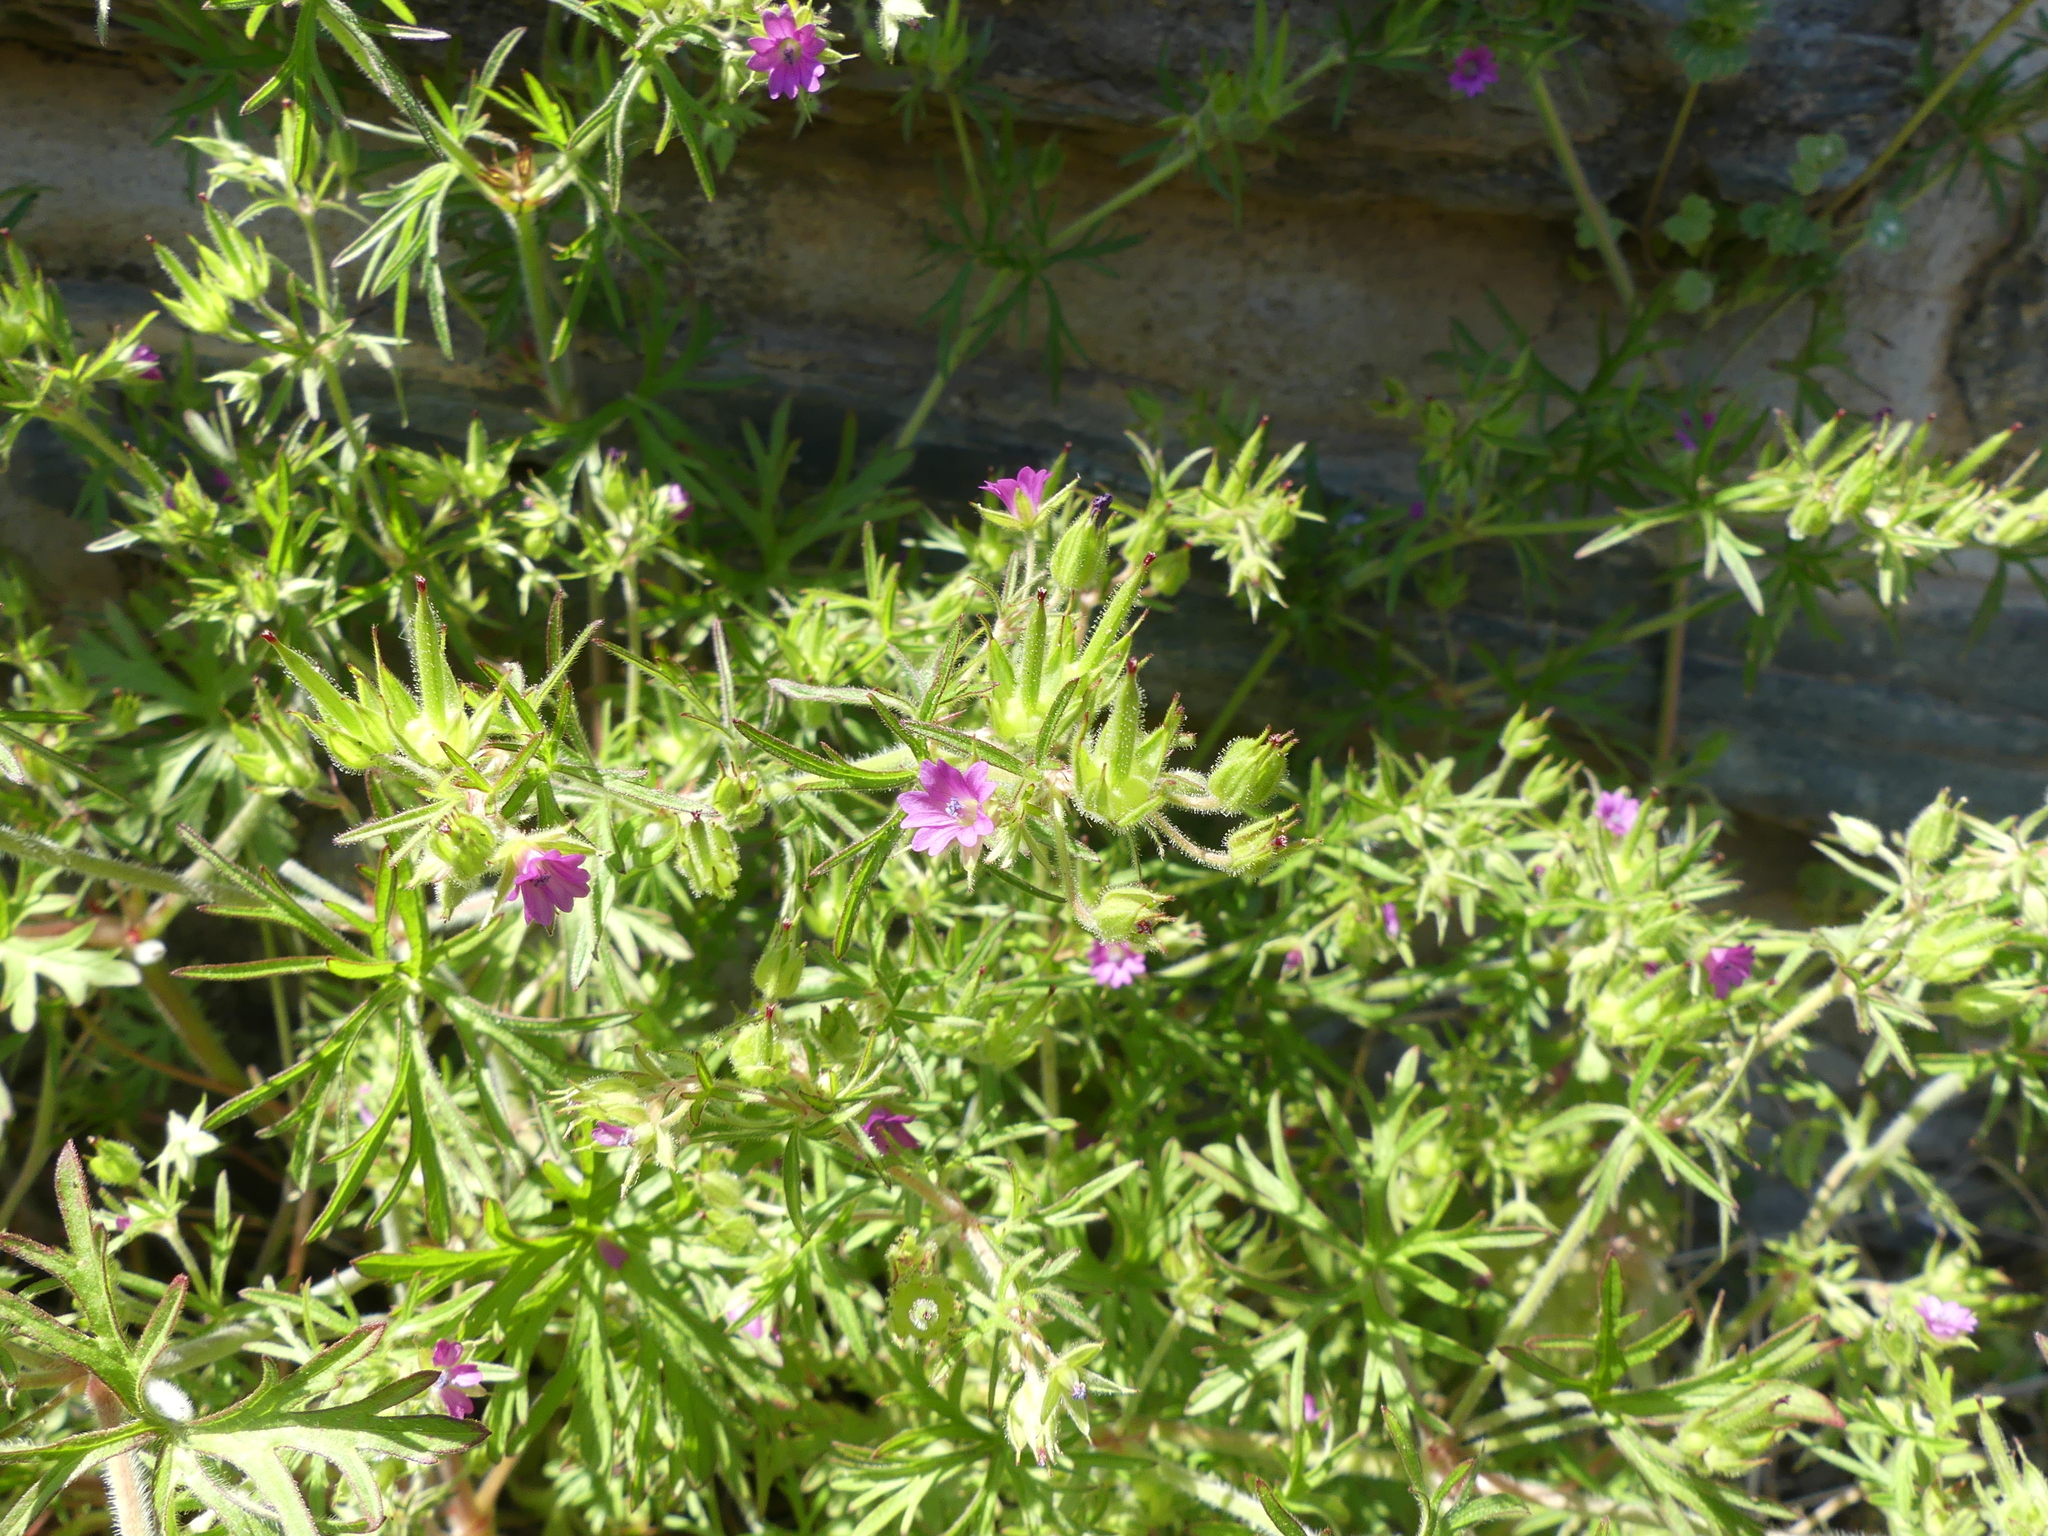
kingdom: Plantae
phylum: Tracheophyta
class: Magnoliopsida
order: Geraniales
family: Geraniaceae
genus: Geranium
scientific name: Geranium dissectum
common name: Cut-leaved crane's-bill
